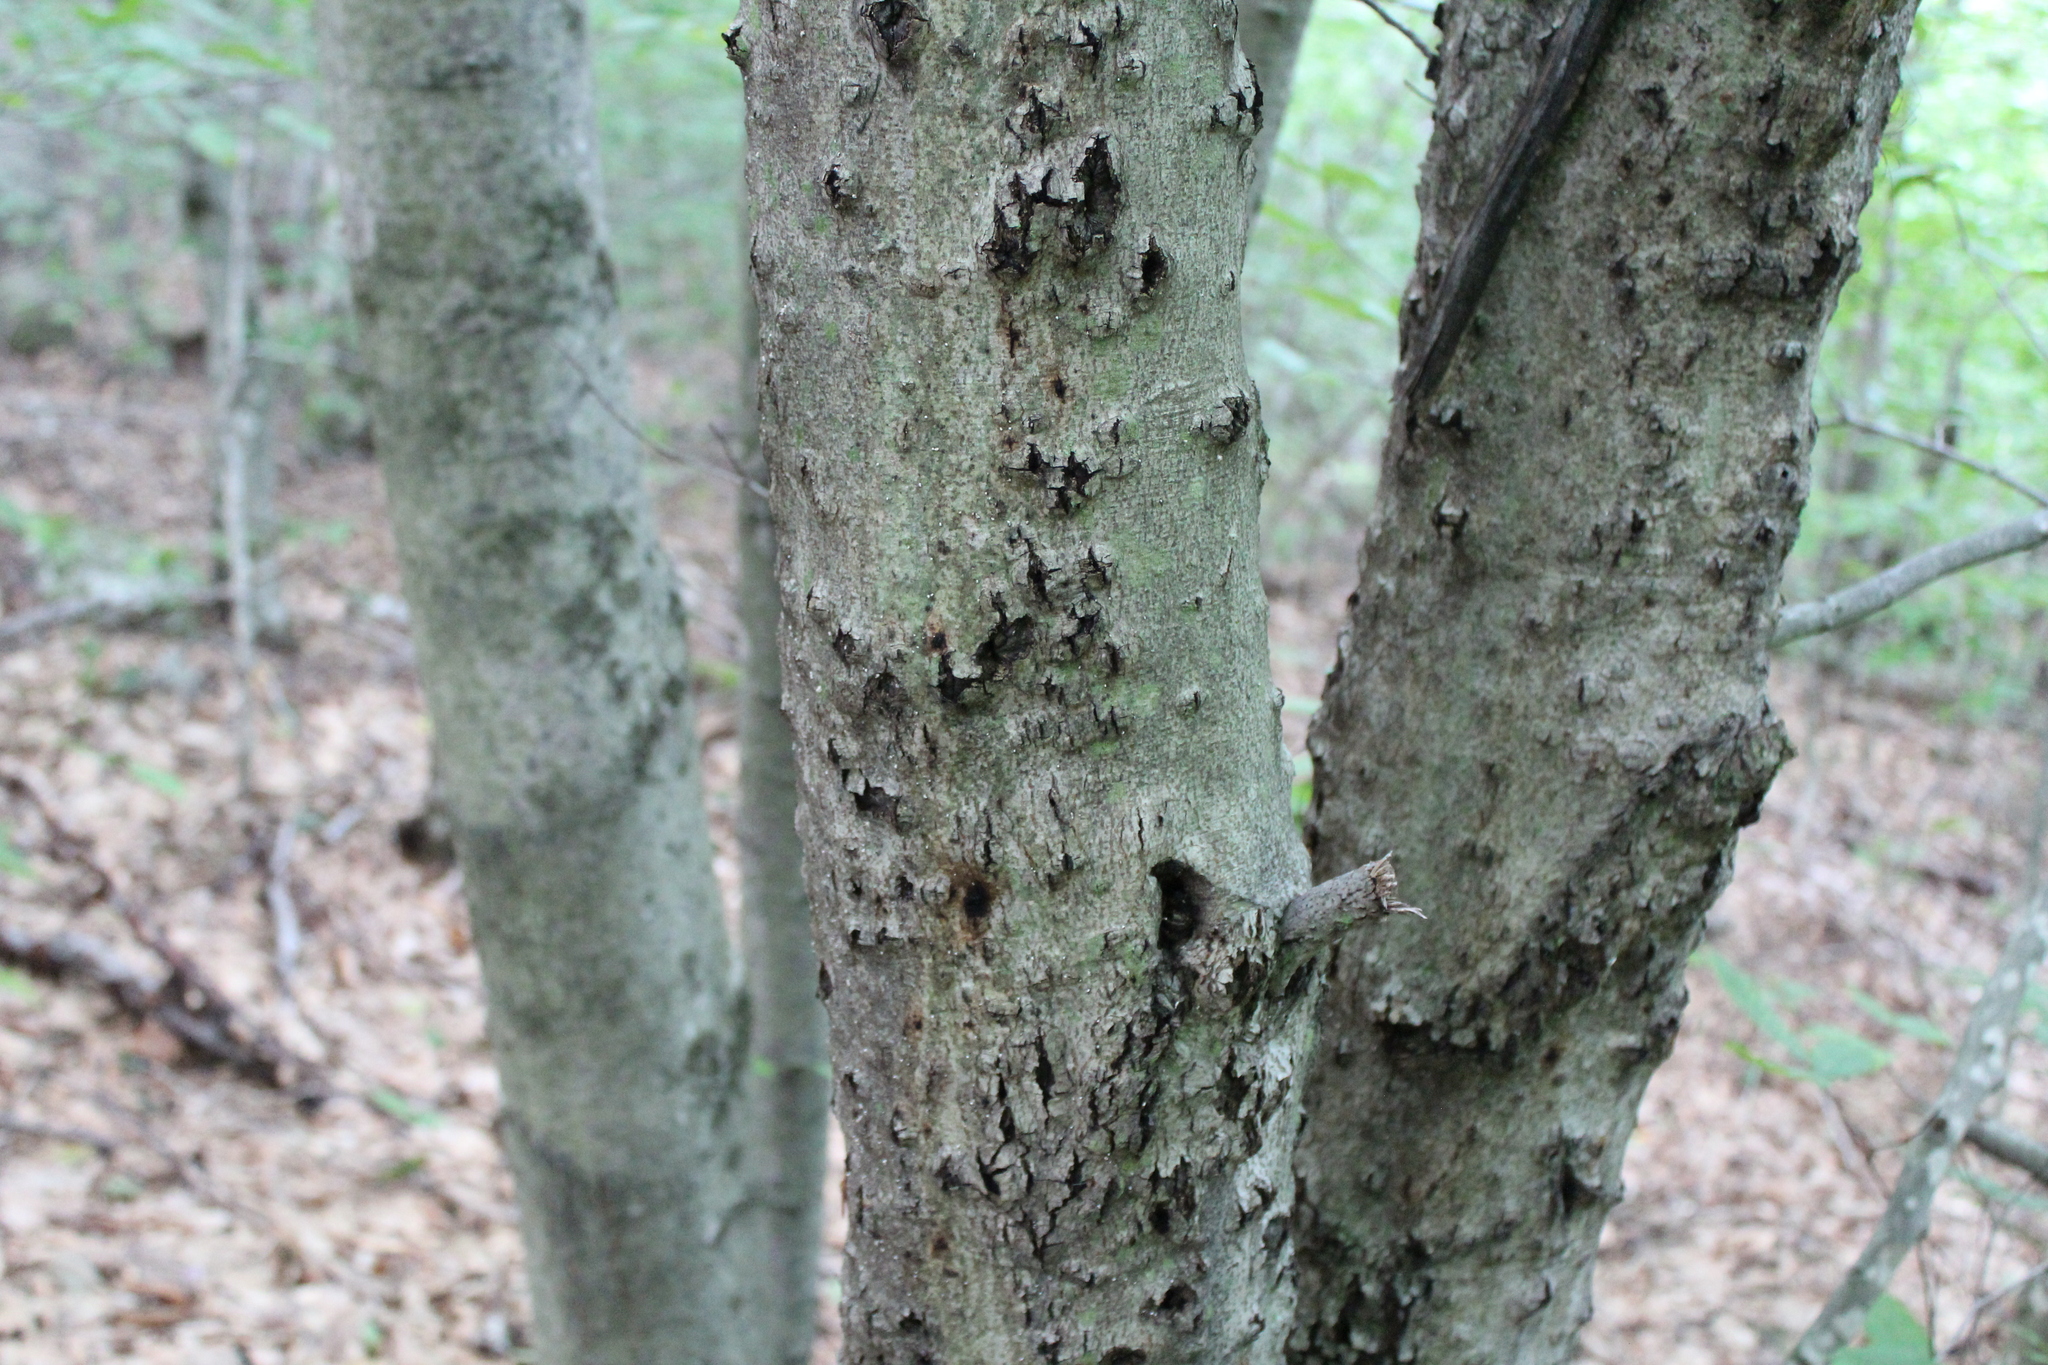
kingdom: Plantae
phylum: Tracheophyta
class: Magnoliopsida
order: Fagales
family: Fagaceae
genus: Fagus
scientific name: Fagus grandifolia
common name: American beech
